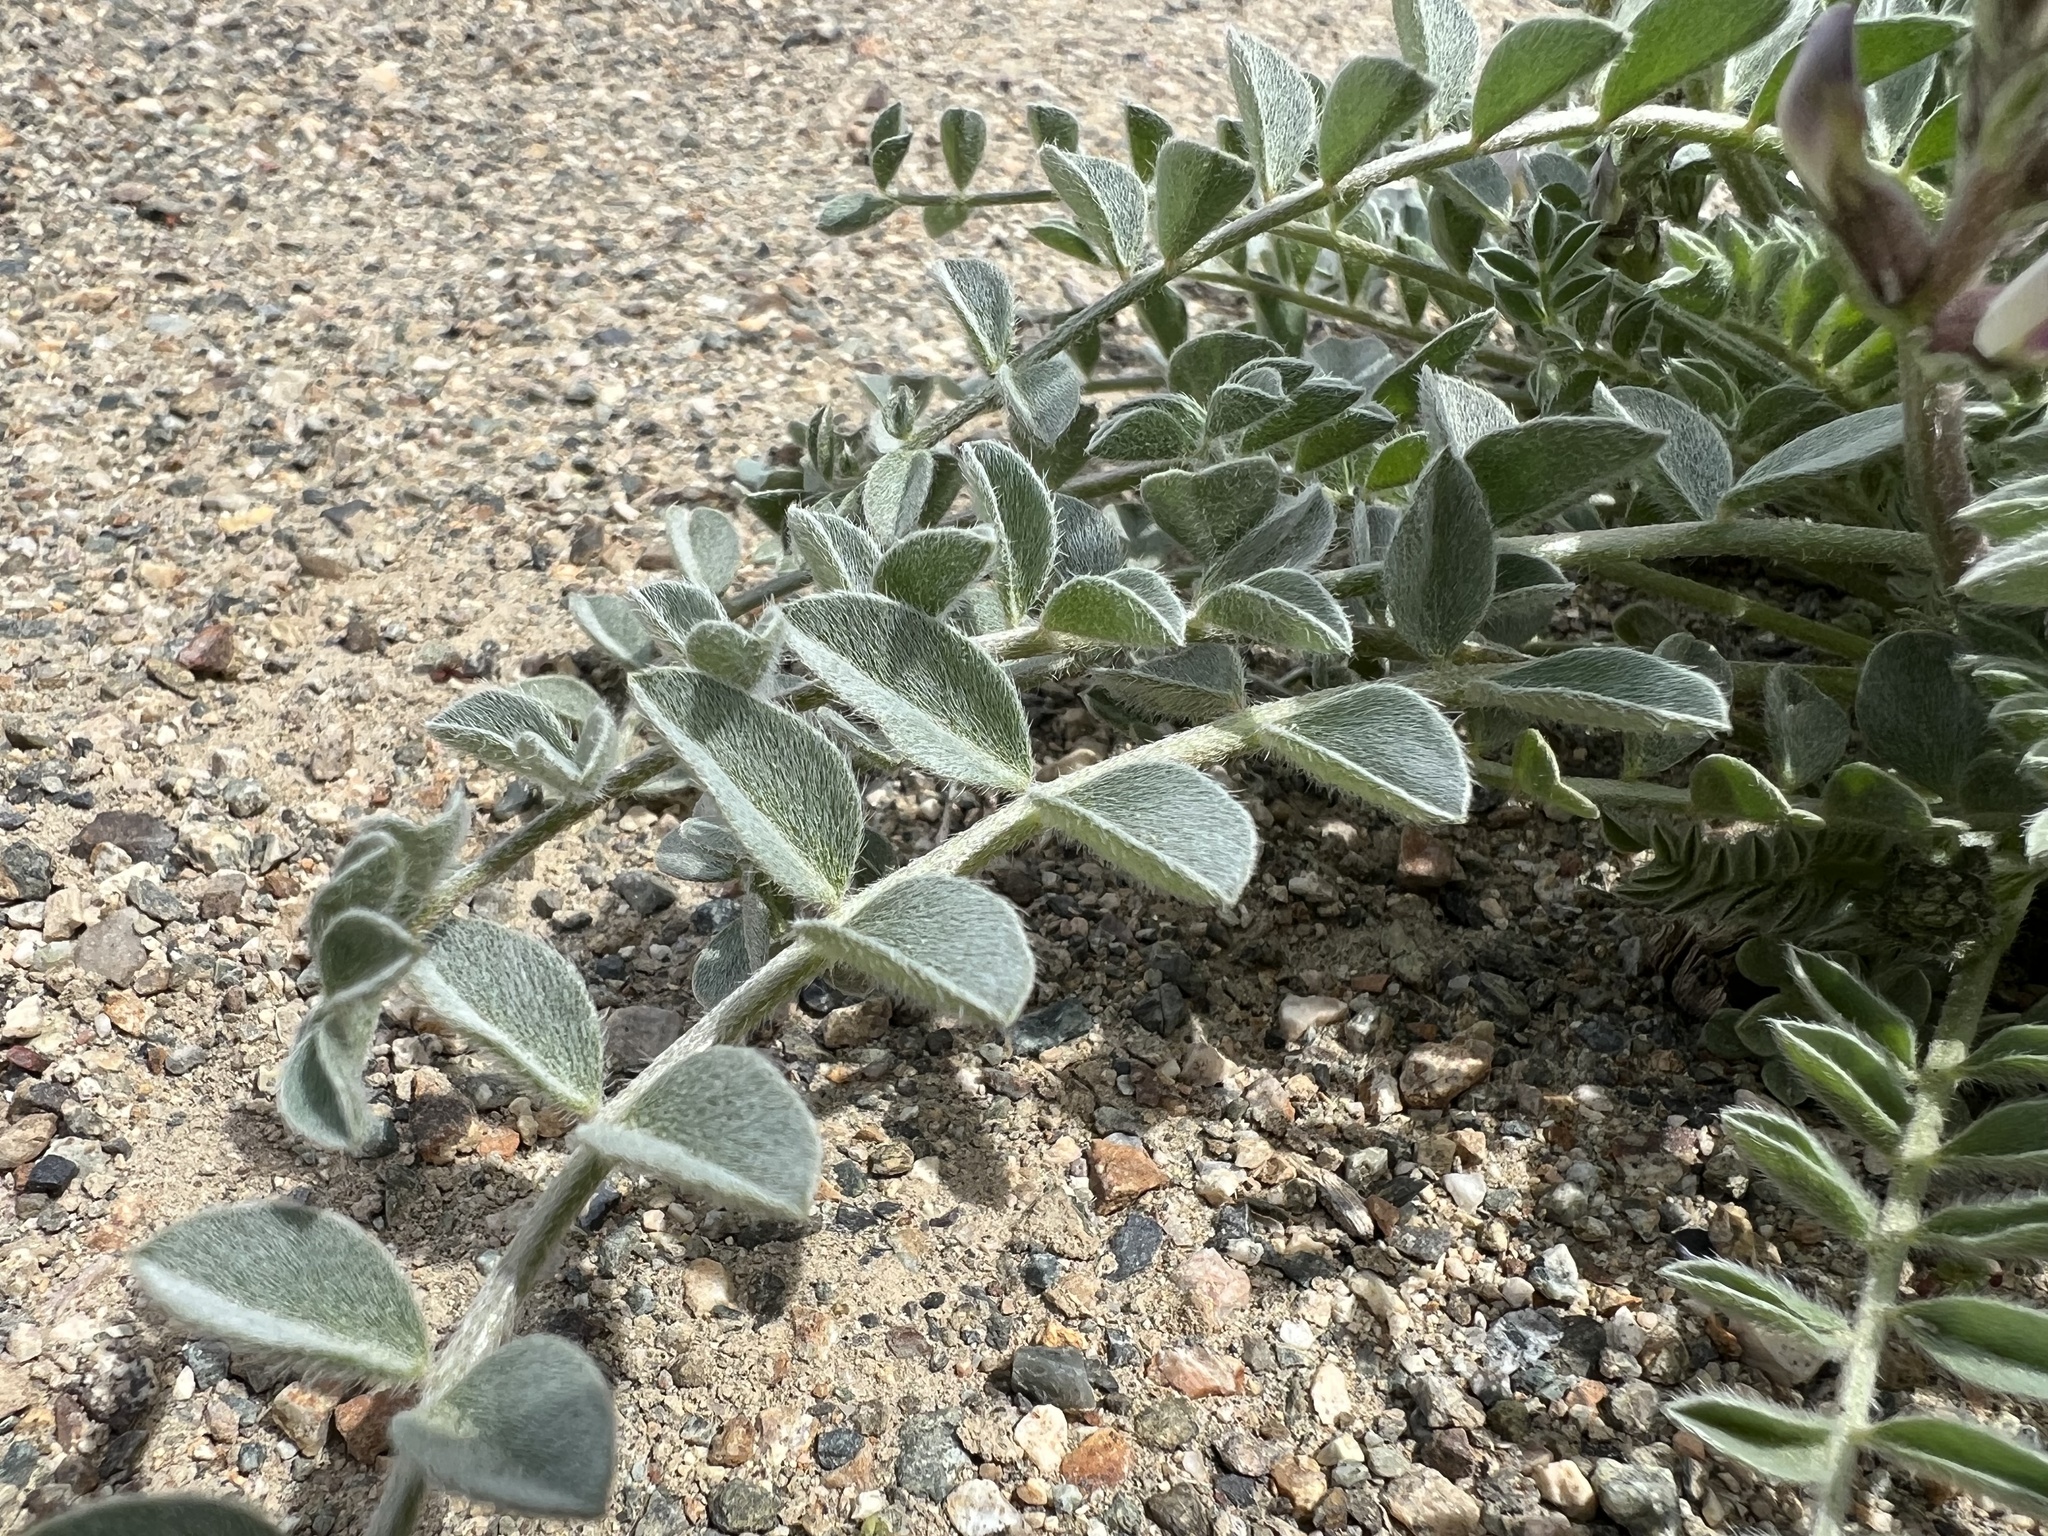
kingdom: Plantae
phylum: Tracheophyta
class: Magnoliopsida
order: Fabales
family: Fabaceae
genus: Astragalus
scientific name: Astragalus layneae
